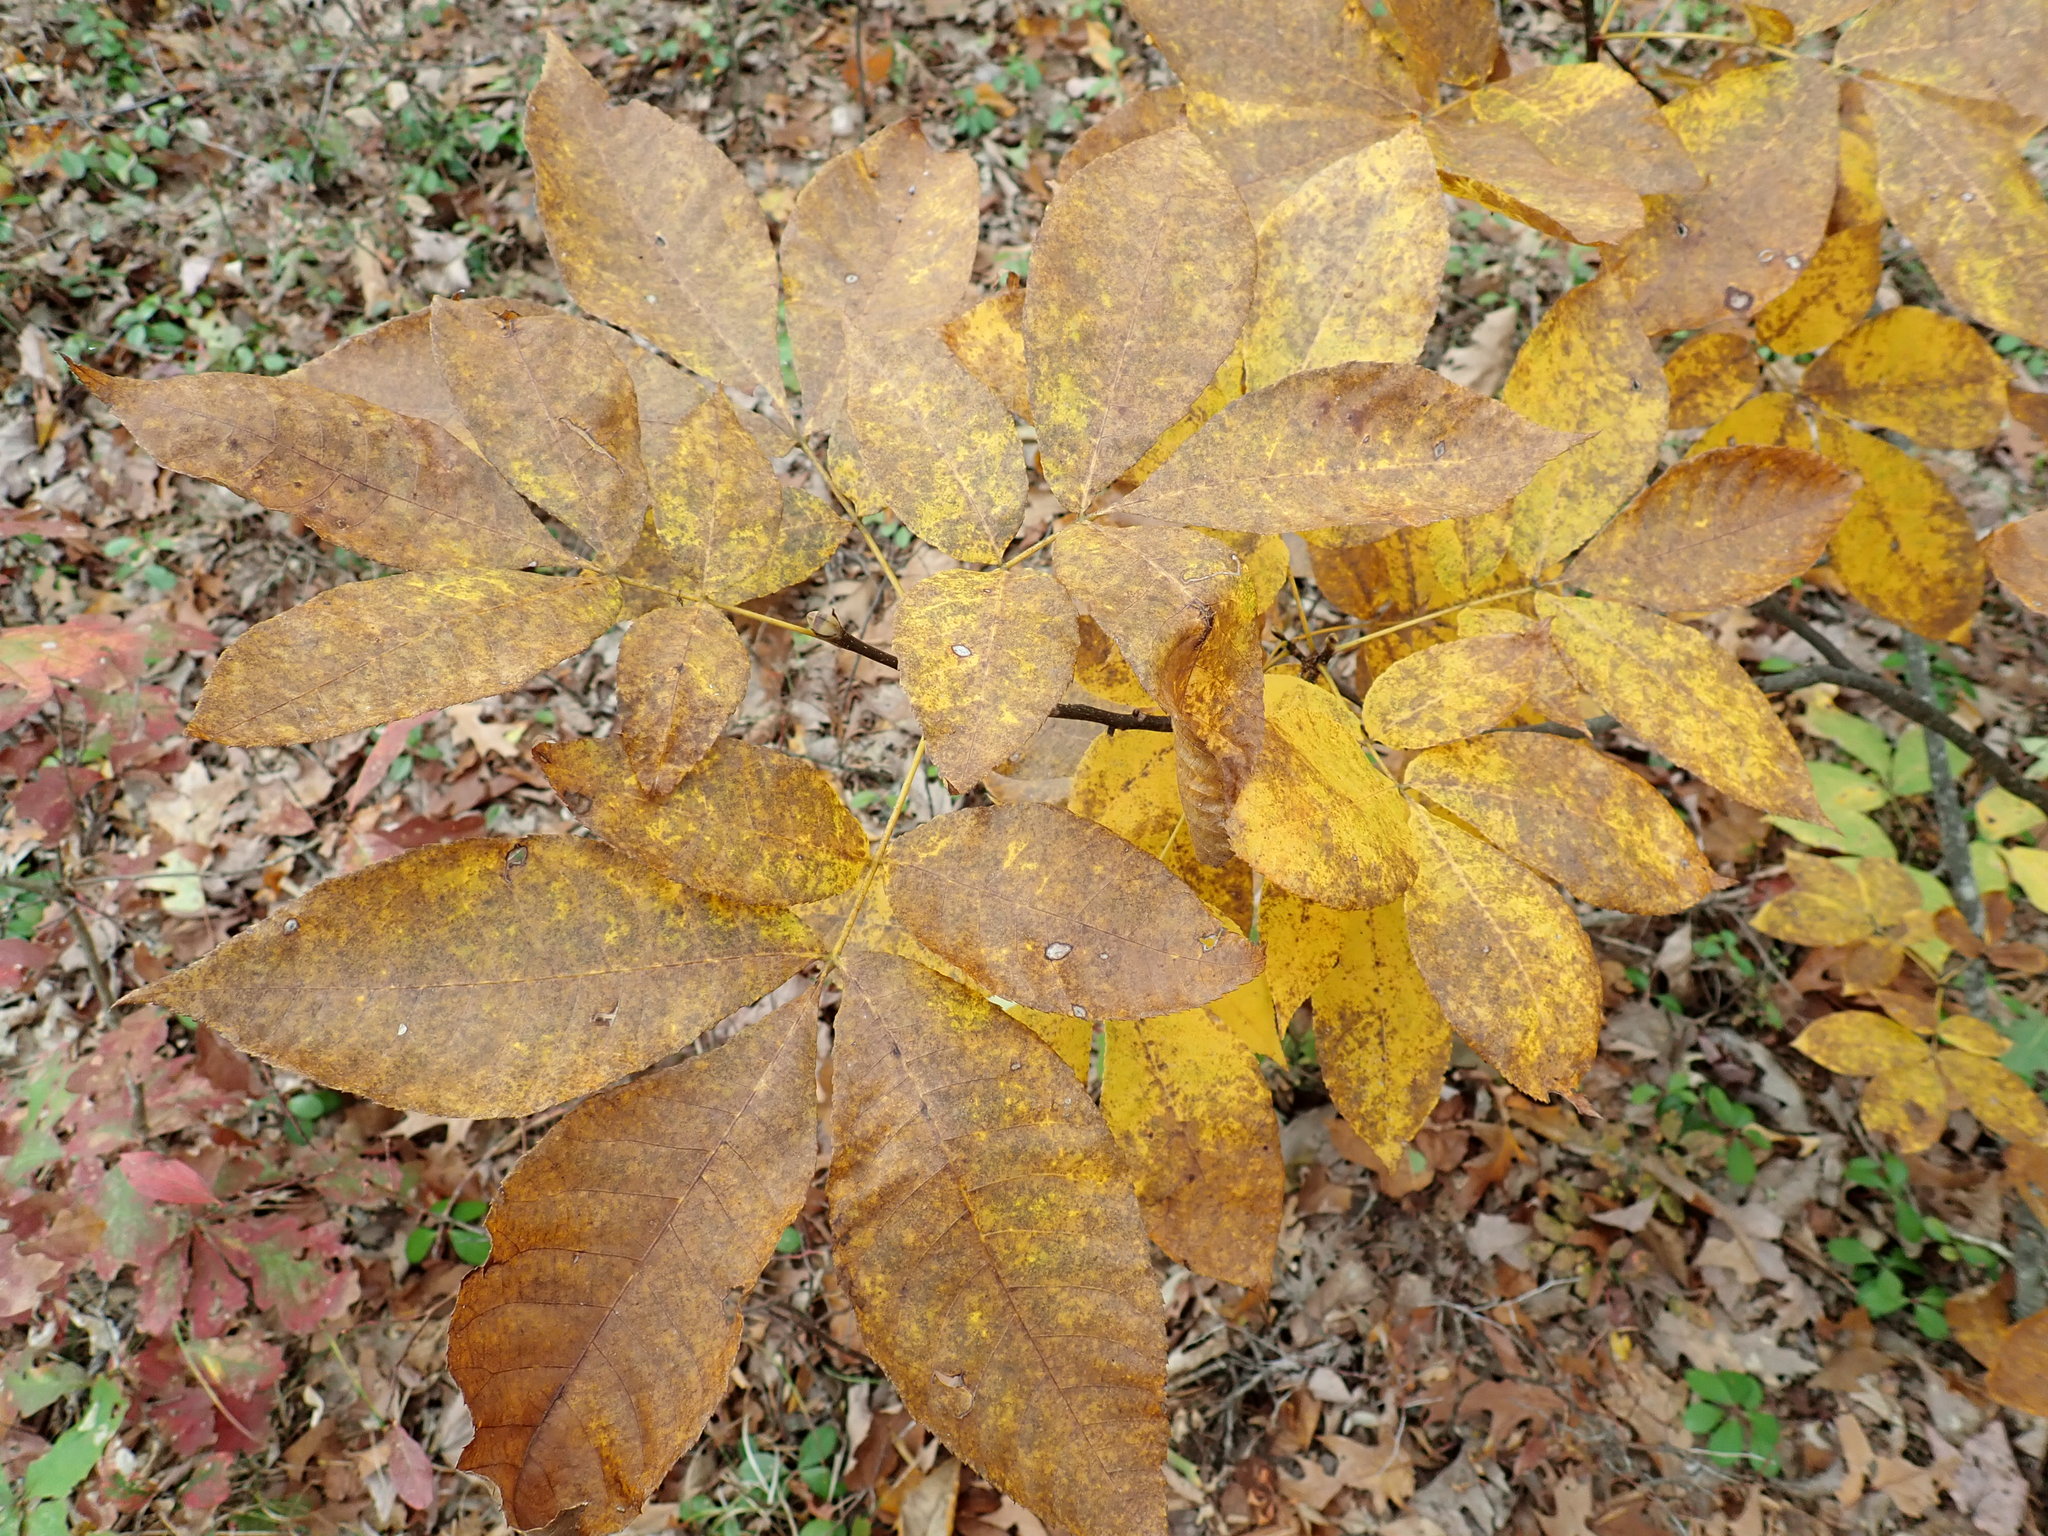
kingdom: Plantae
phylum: Tracheophyta
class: Magnoliopsida
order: Fagales
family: Juglandaceae
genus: Carya
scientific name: Carya
